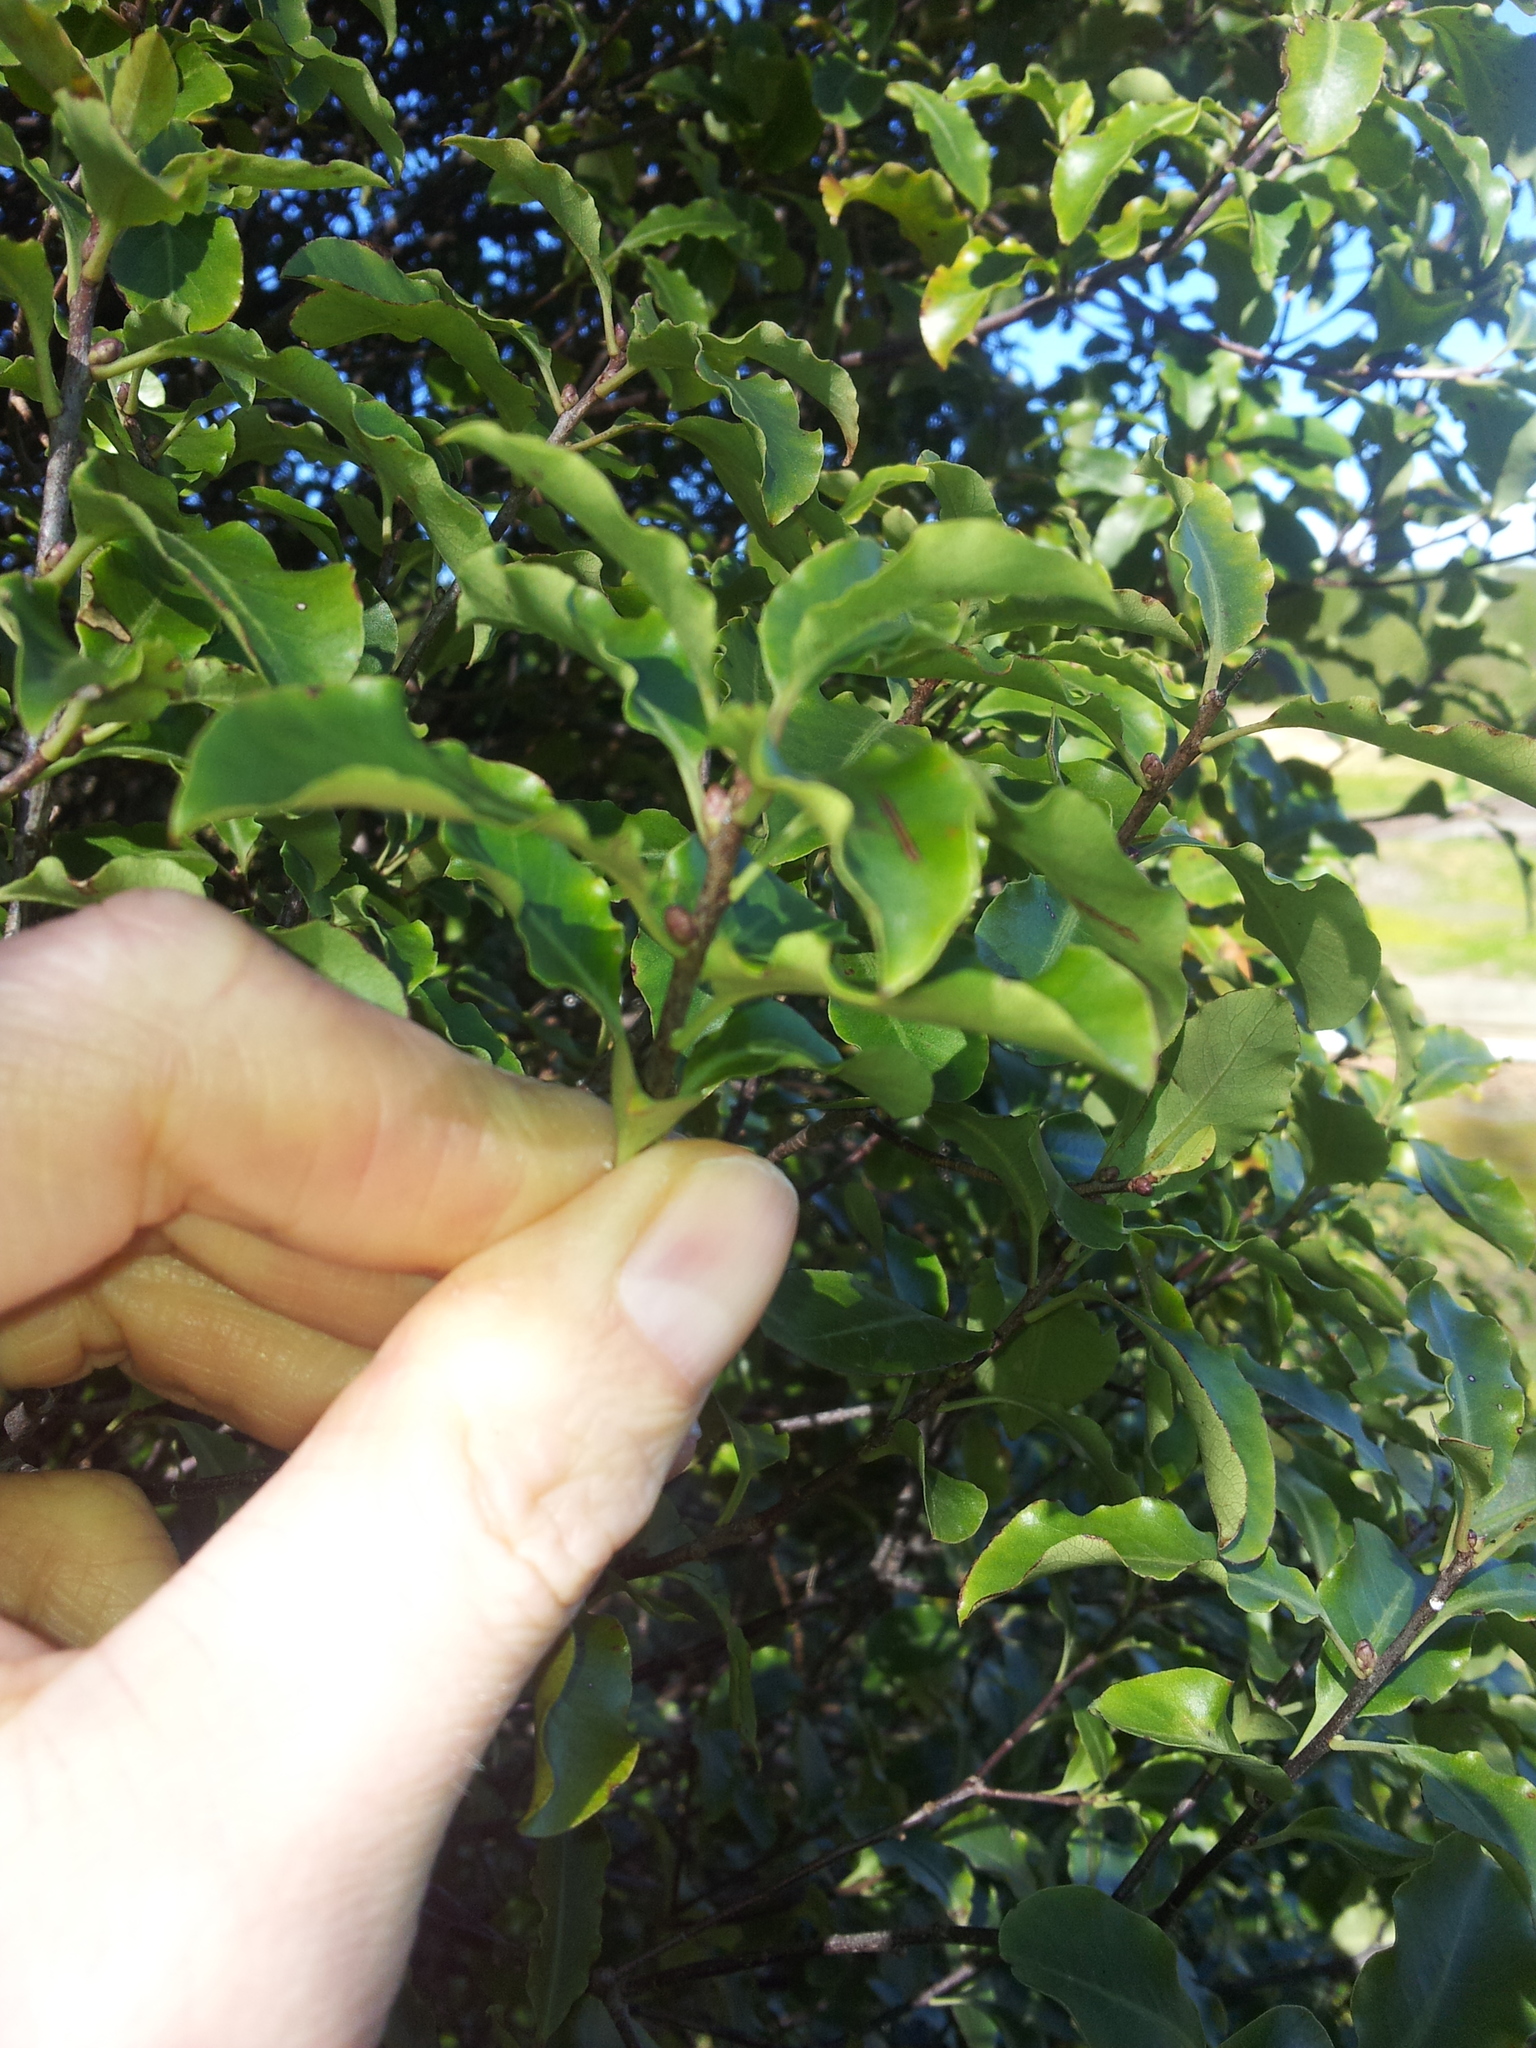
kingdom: Plantae
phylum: Tracheophyta
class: Magnoliopsida
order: Apiales
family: Pittosporaceae
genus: Pittosporum
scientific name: Pittosporum tenuifolium
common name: Kohuhu
